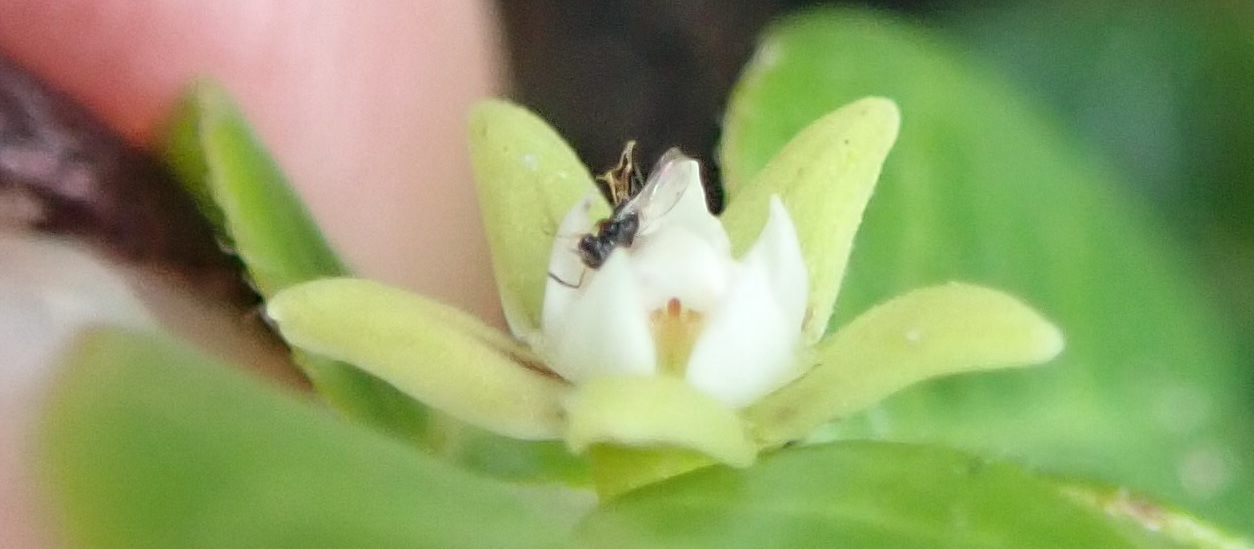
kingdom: Plantae
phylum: Tracheophyta
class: Magnoliopsida
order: Gentianales
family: Apocynaceae
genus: Cynanchum
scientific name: Cynanchum obtusifolium
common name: Monkey-rope
